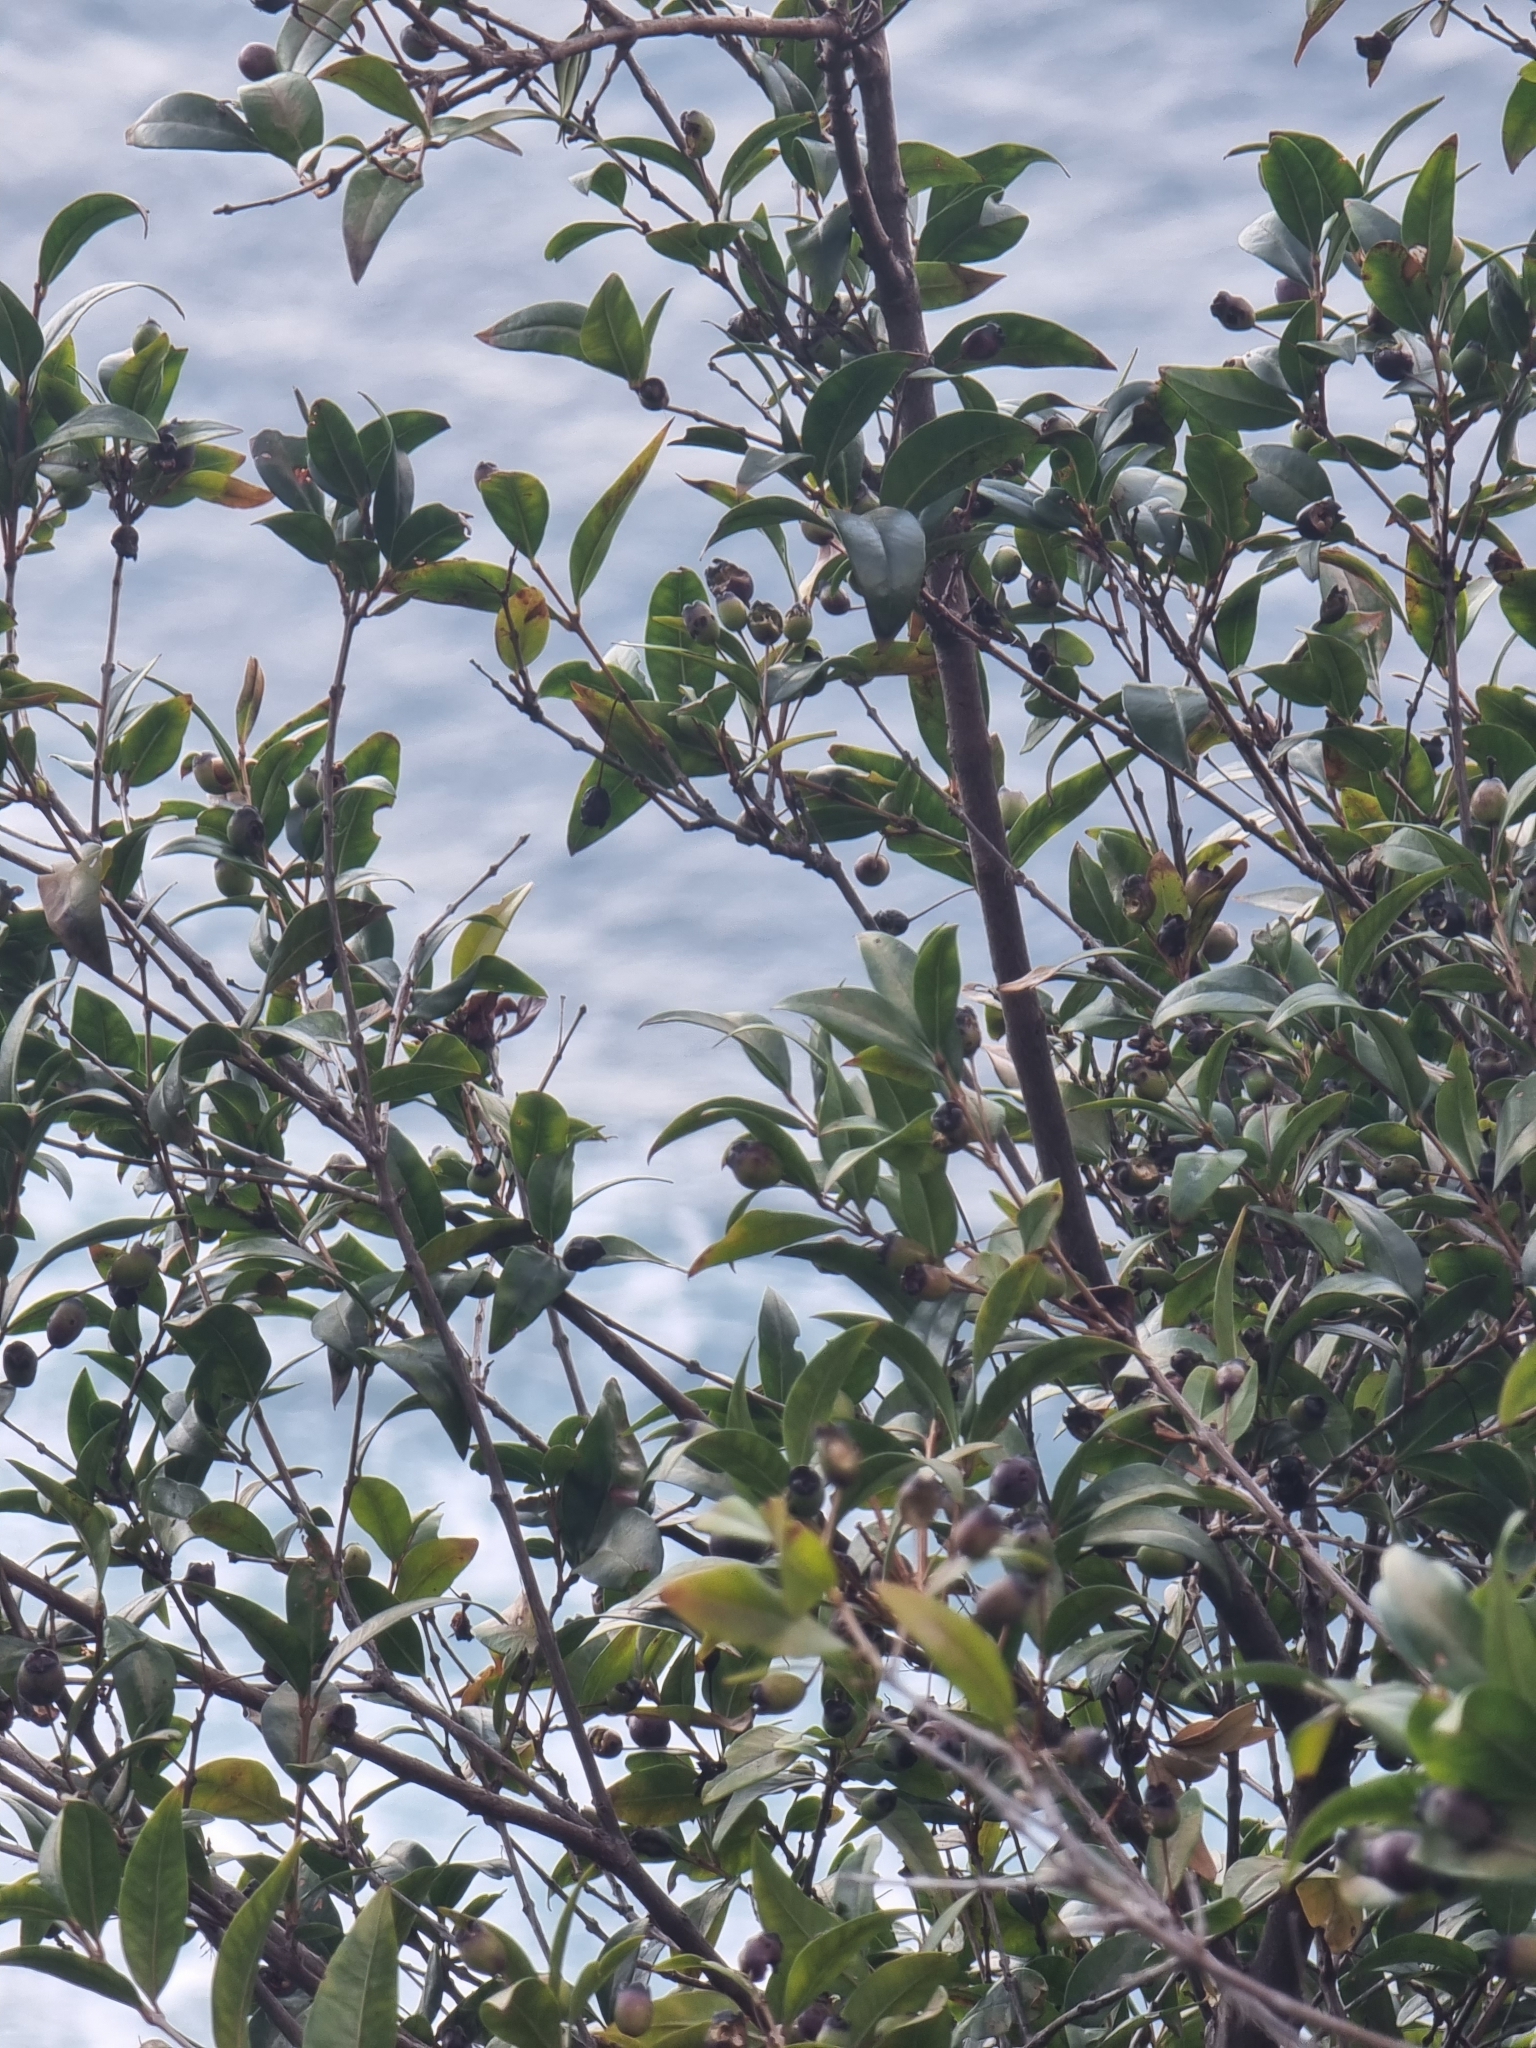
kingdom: Plantae
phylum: Tracheophyta
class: Magnoliopsida
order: Myrtales
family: Myrtaceae
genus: Myrtus
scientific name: Myrtus communis
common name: Myrtle
